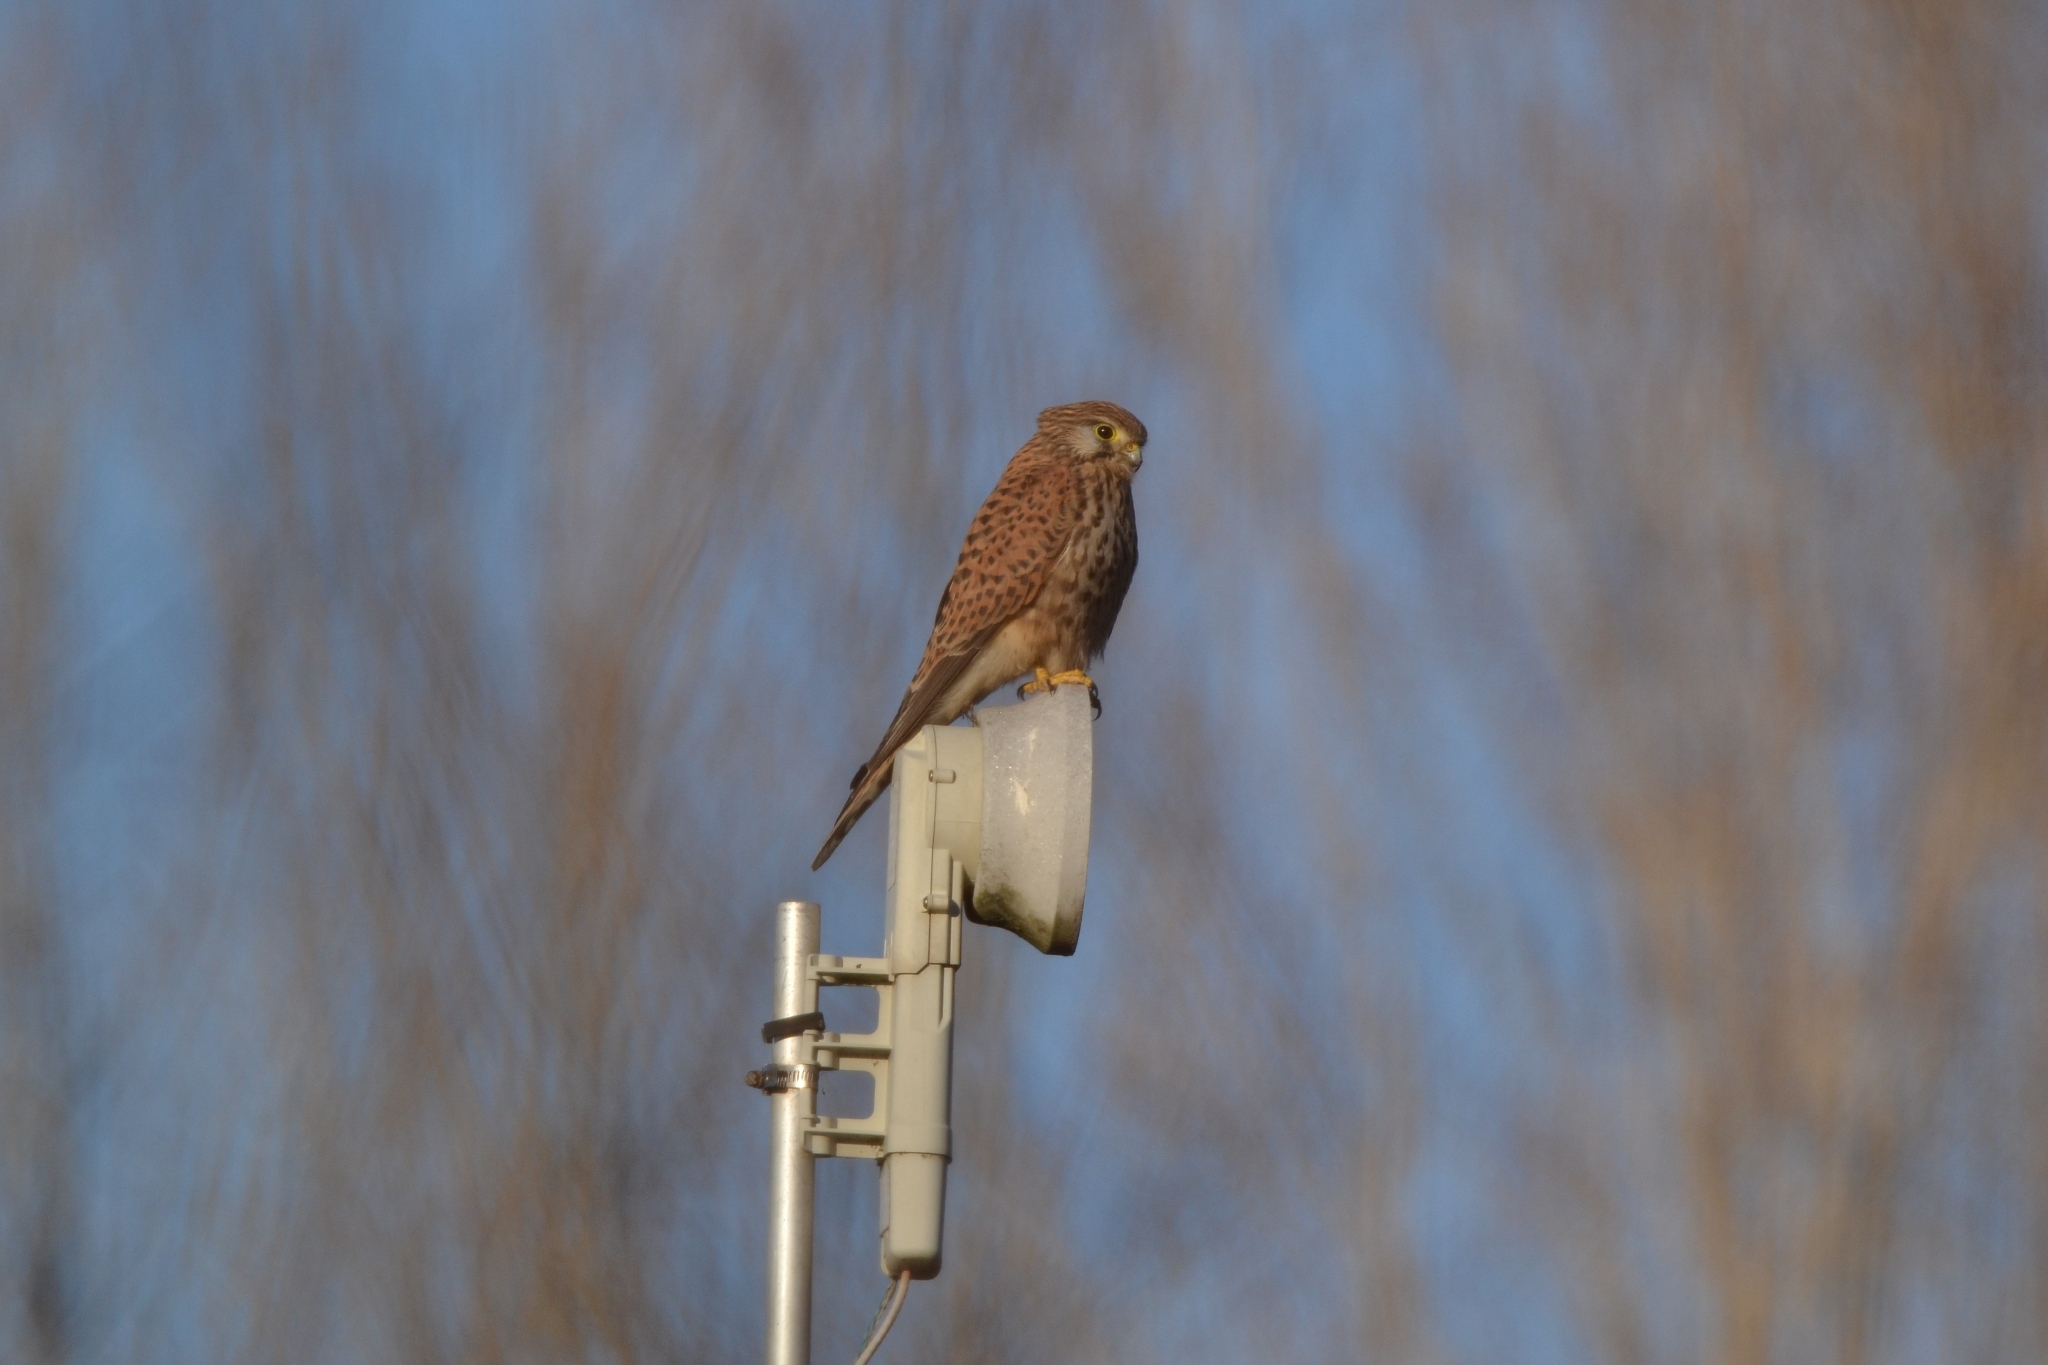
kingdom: Animalia
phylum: Chordata
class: Aves
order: Falconiformes
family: Falconidae
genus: Falco
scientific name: Falco tinnunculus
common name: Common kestrel
